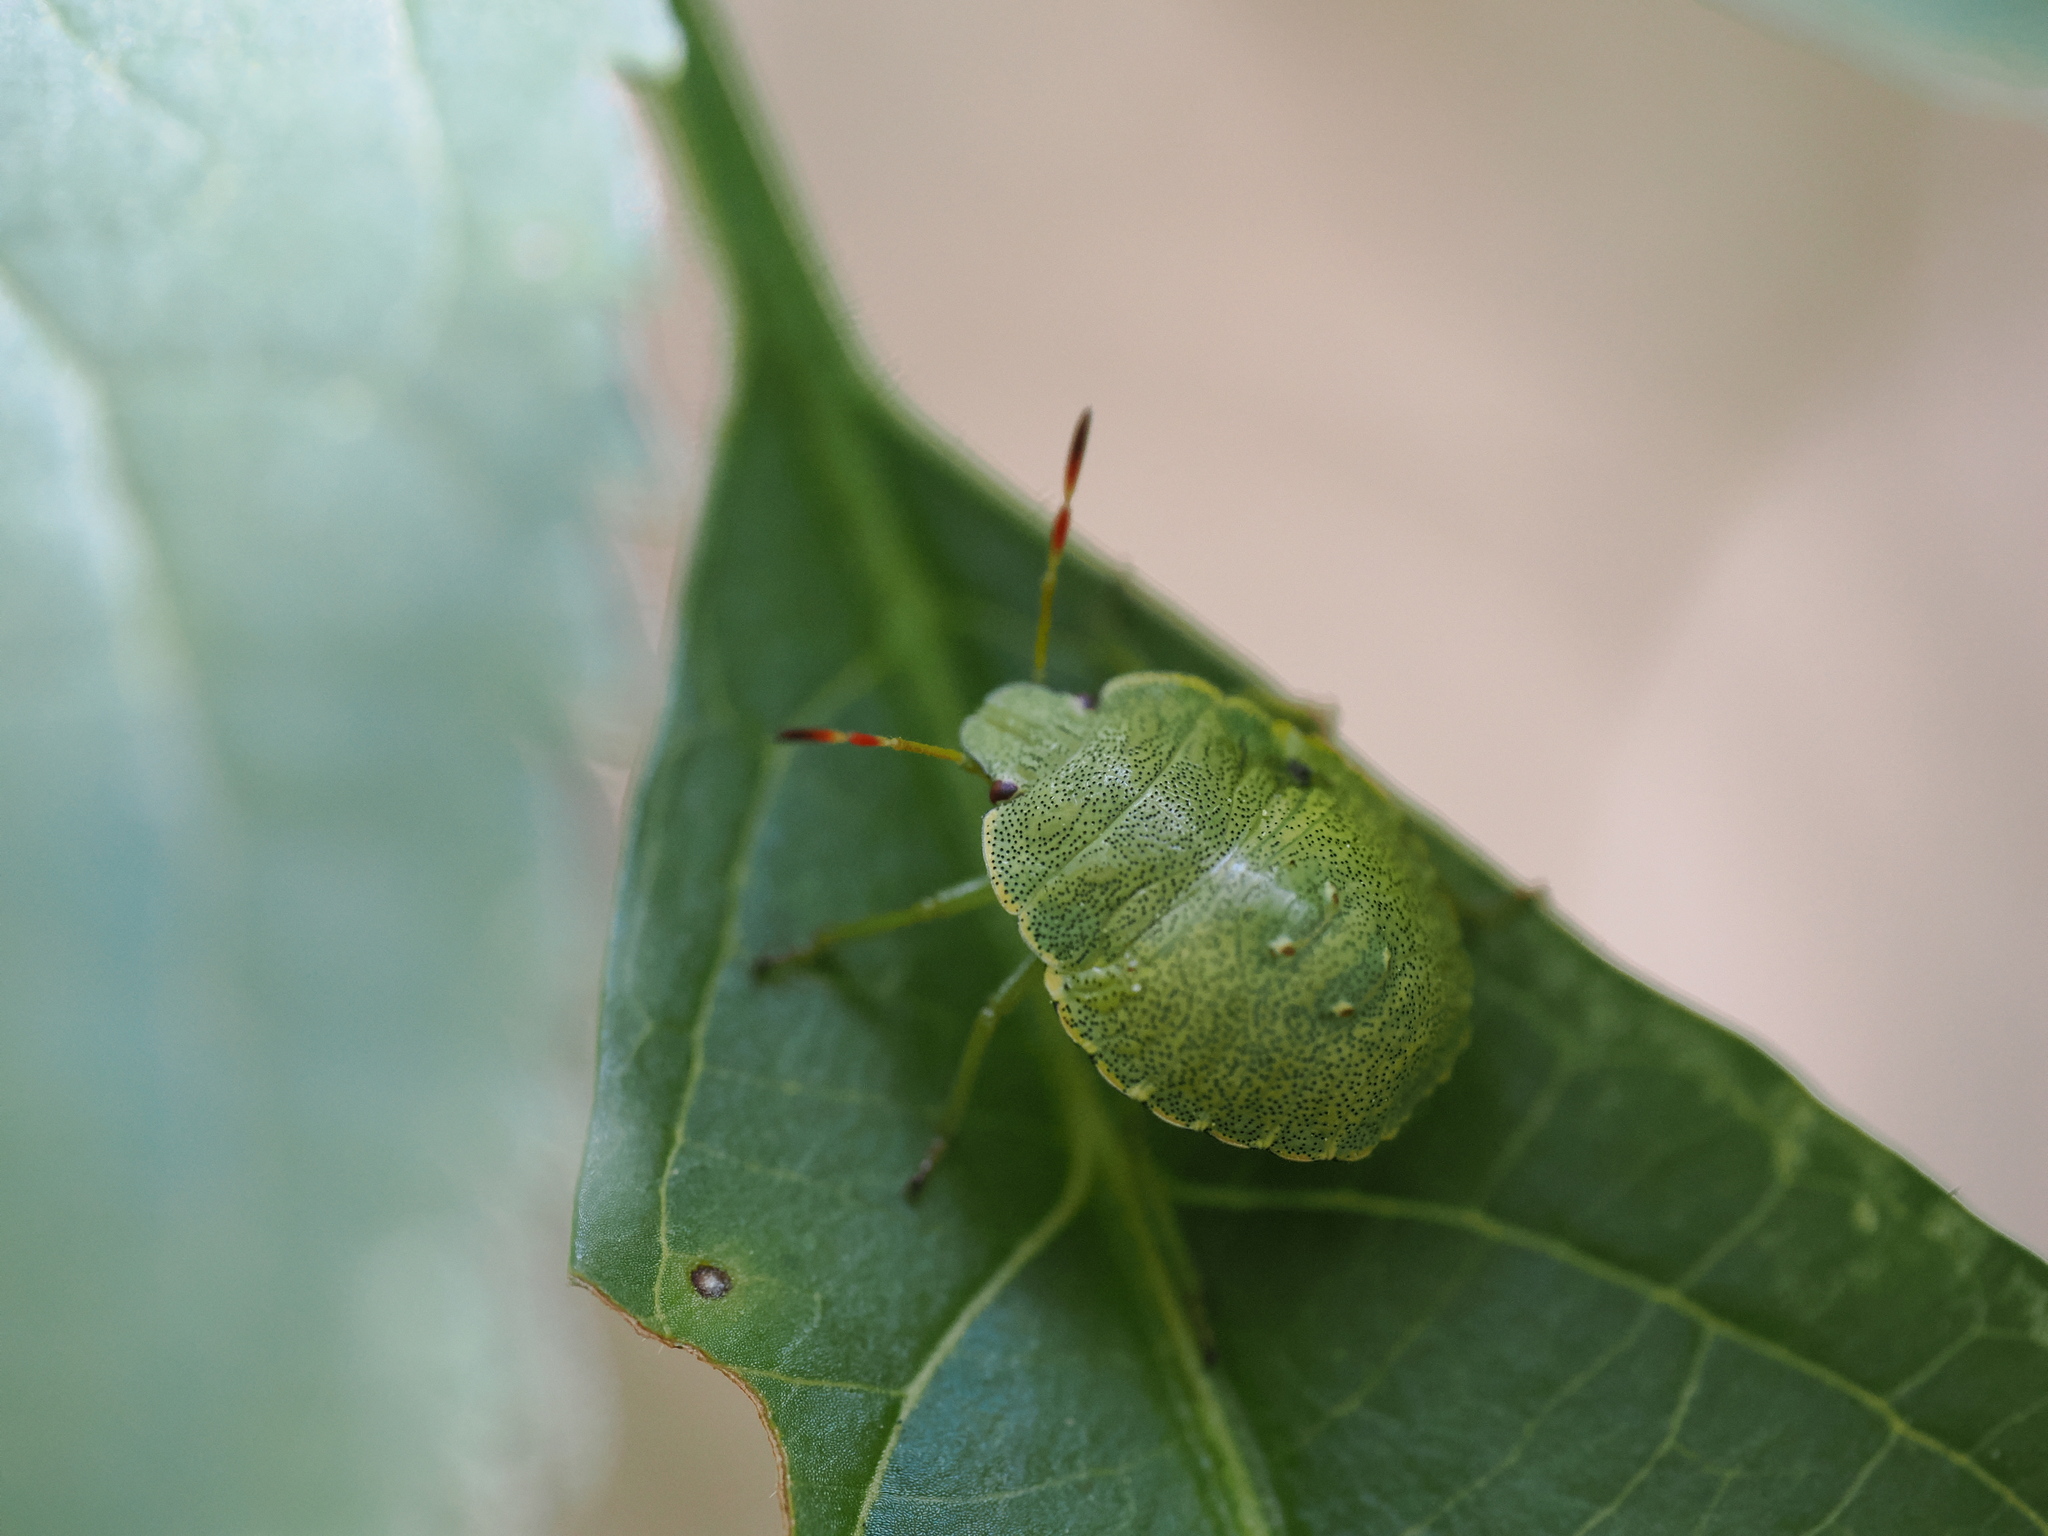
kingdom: Animalia
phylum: Arthropoda
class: Insecta
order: Hemiptera
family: Pentatomidae
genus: Palomena
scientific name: Palomena prasina
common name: Green shieldbug
